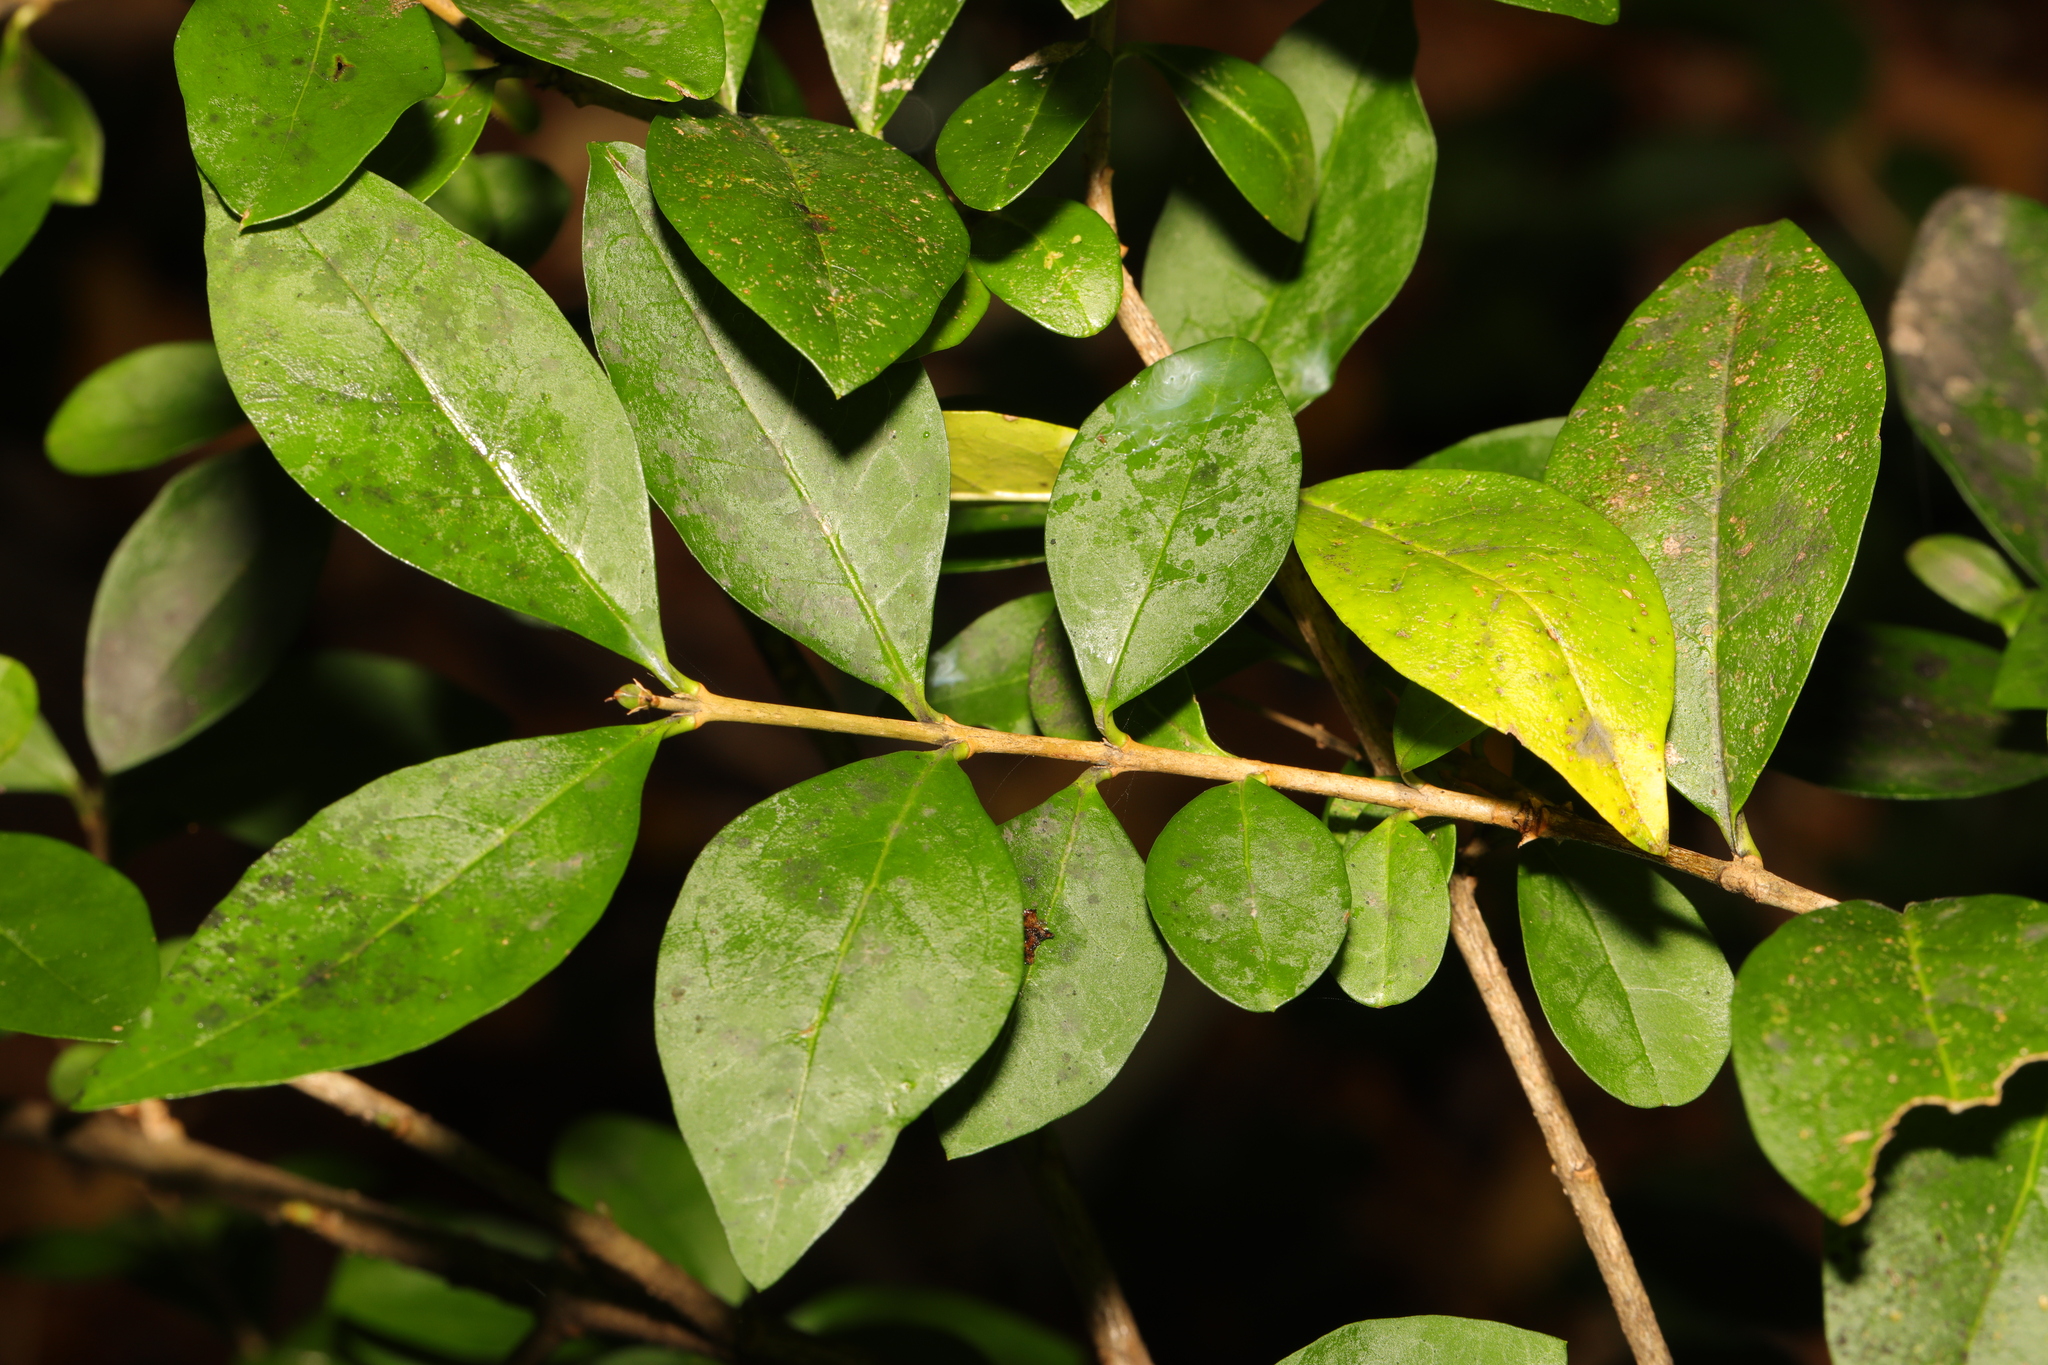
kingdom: Plantae
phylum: Tracheophyta
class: Magnoliopsida
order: Lamiales
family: Oleaceae
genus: Ligustrum
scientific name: Ligustrum ovalifolium
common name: California privet
